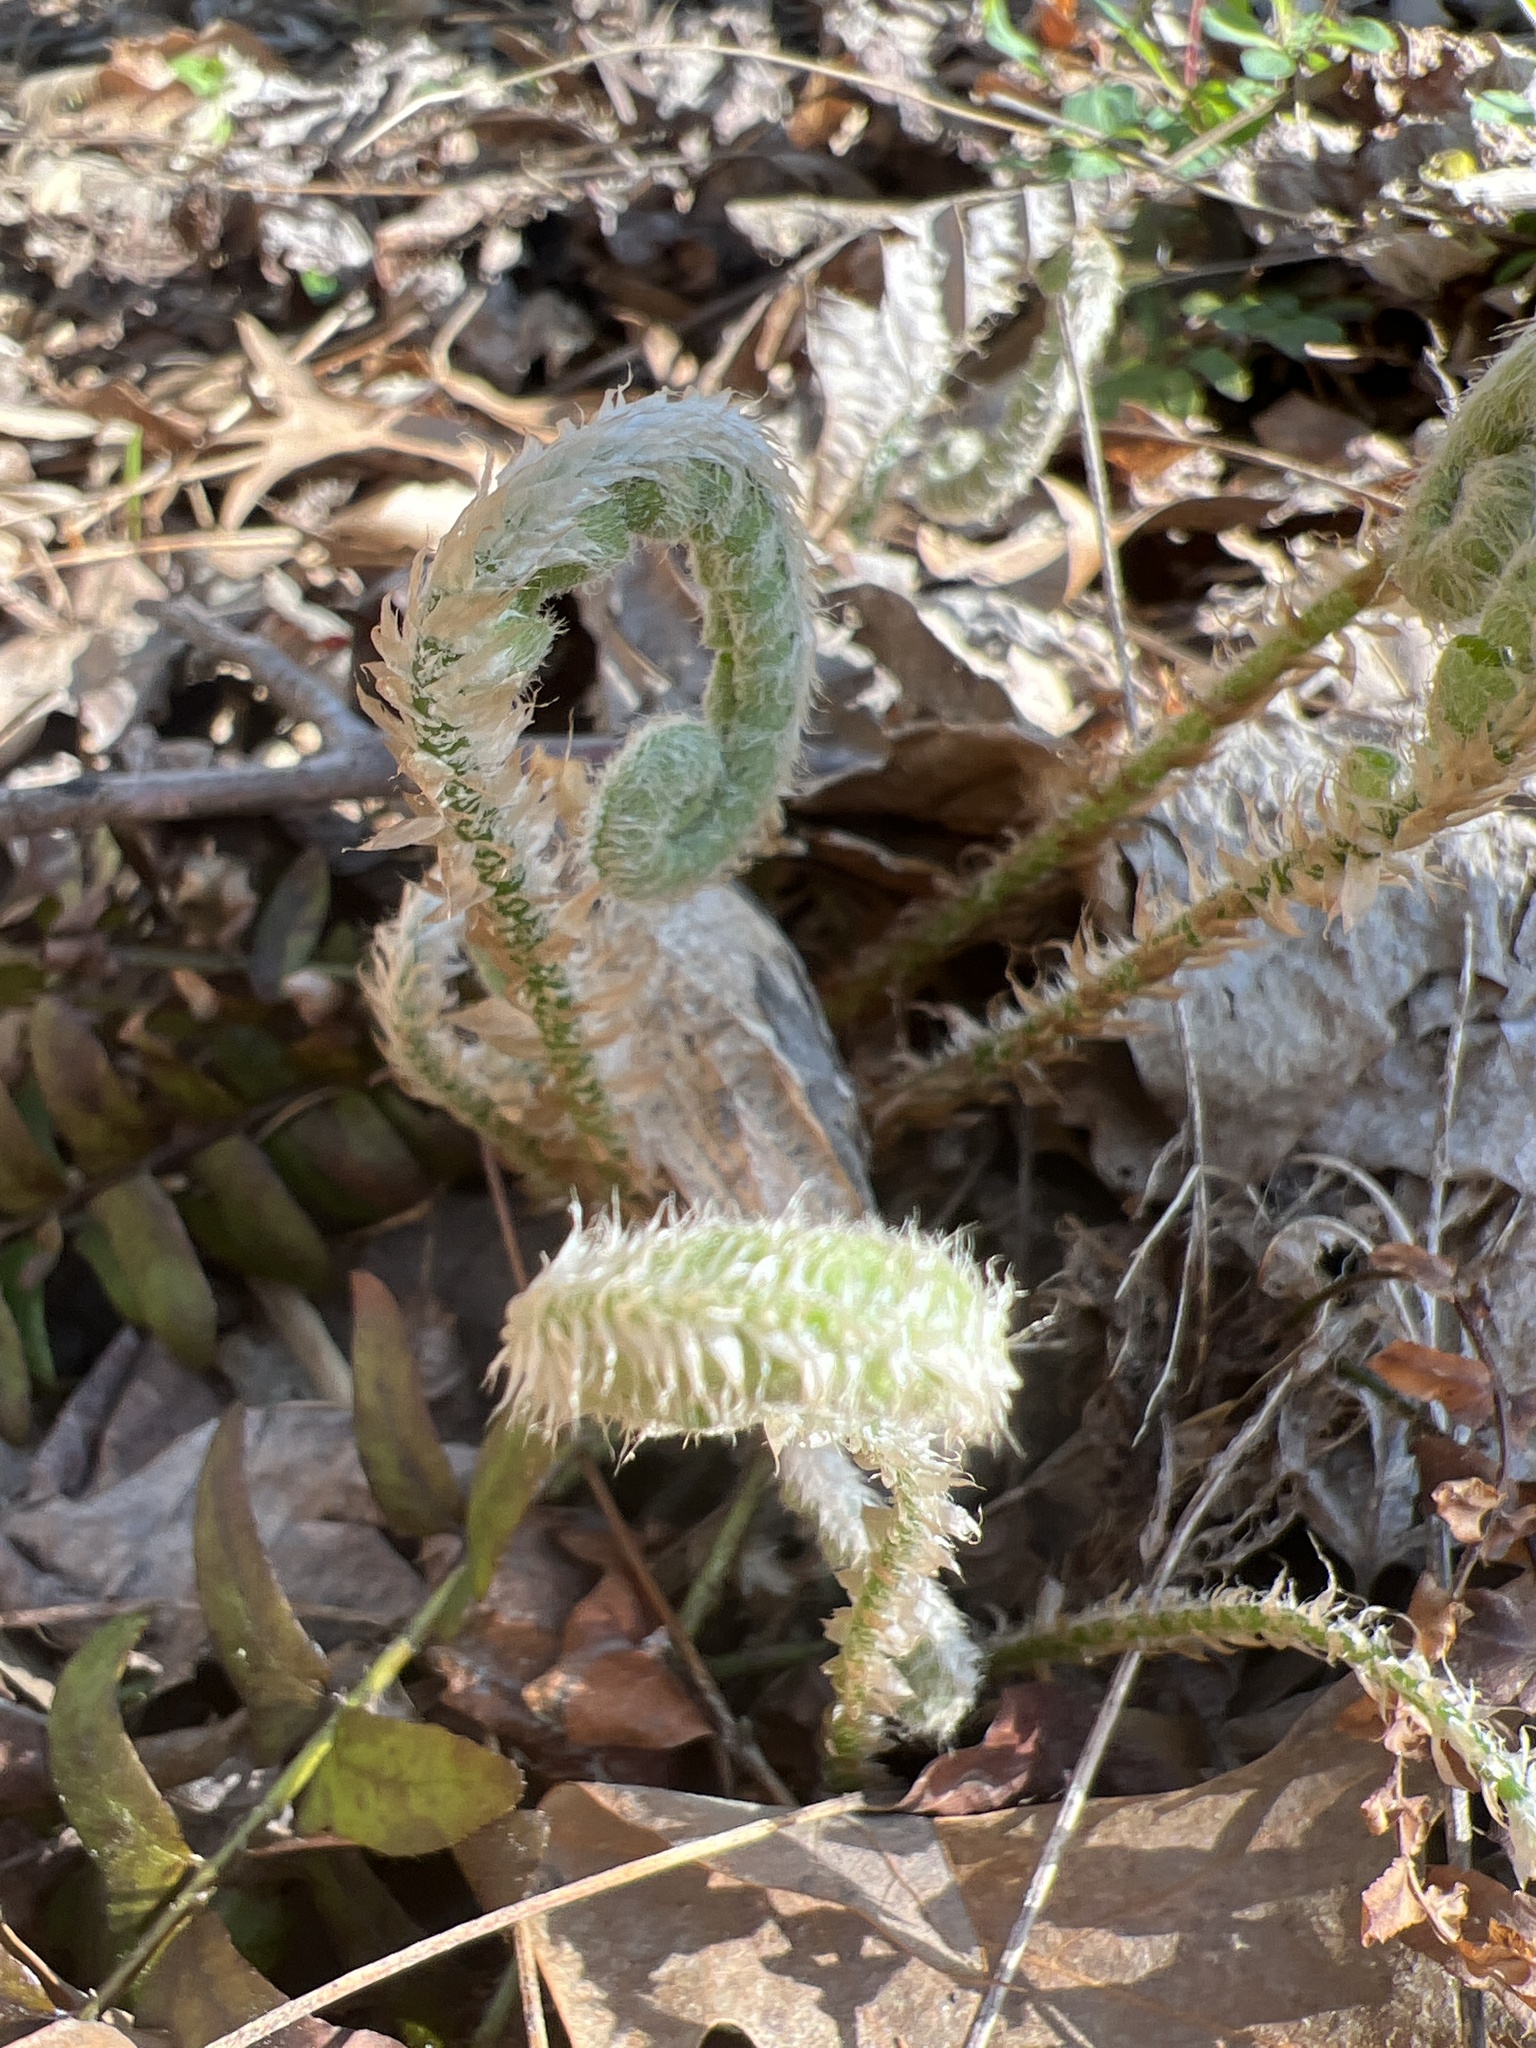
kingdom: Plantae
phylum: Tracheophyta
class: Polypodiopsida
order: Polypodiales
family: Dryopteridaceae
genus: Polystichum
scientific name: Polystichum acrostichoides
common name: Christmas fern
